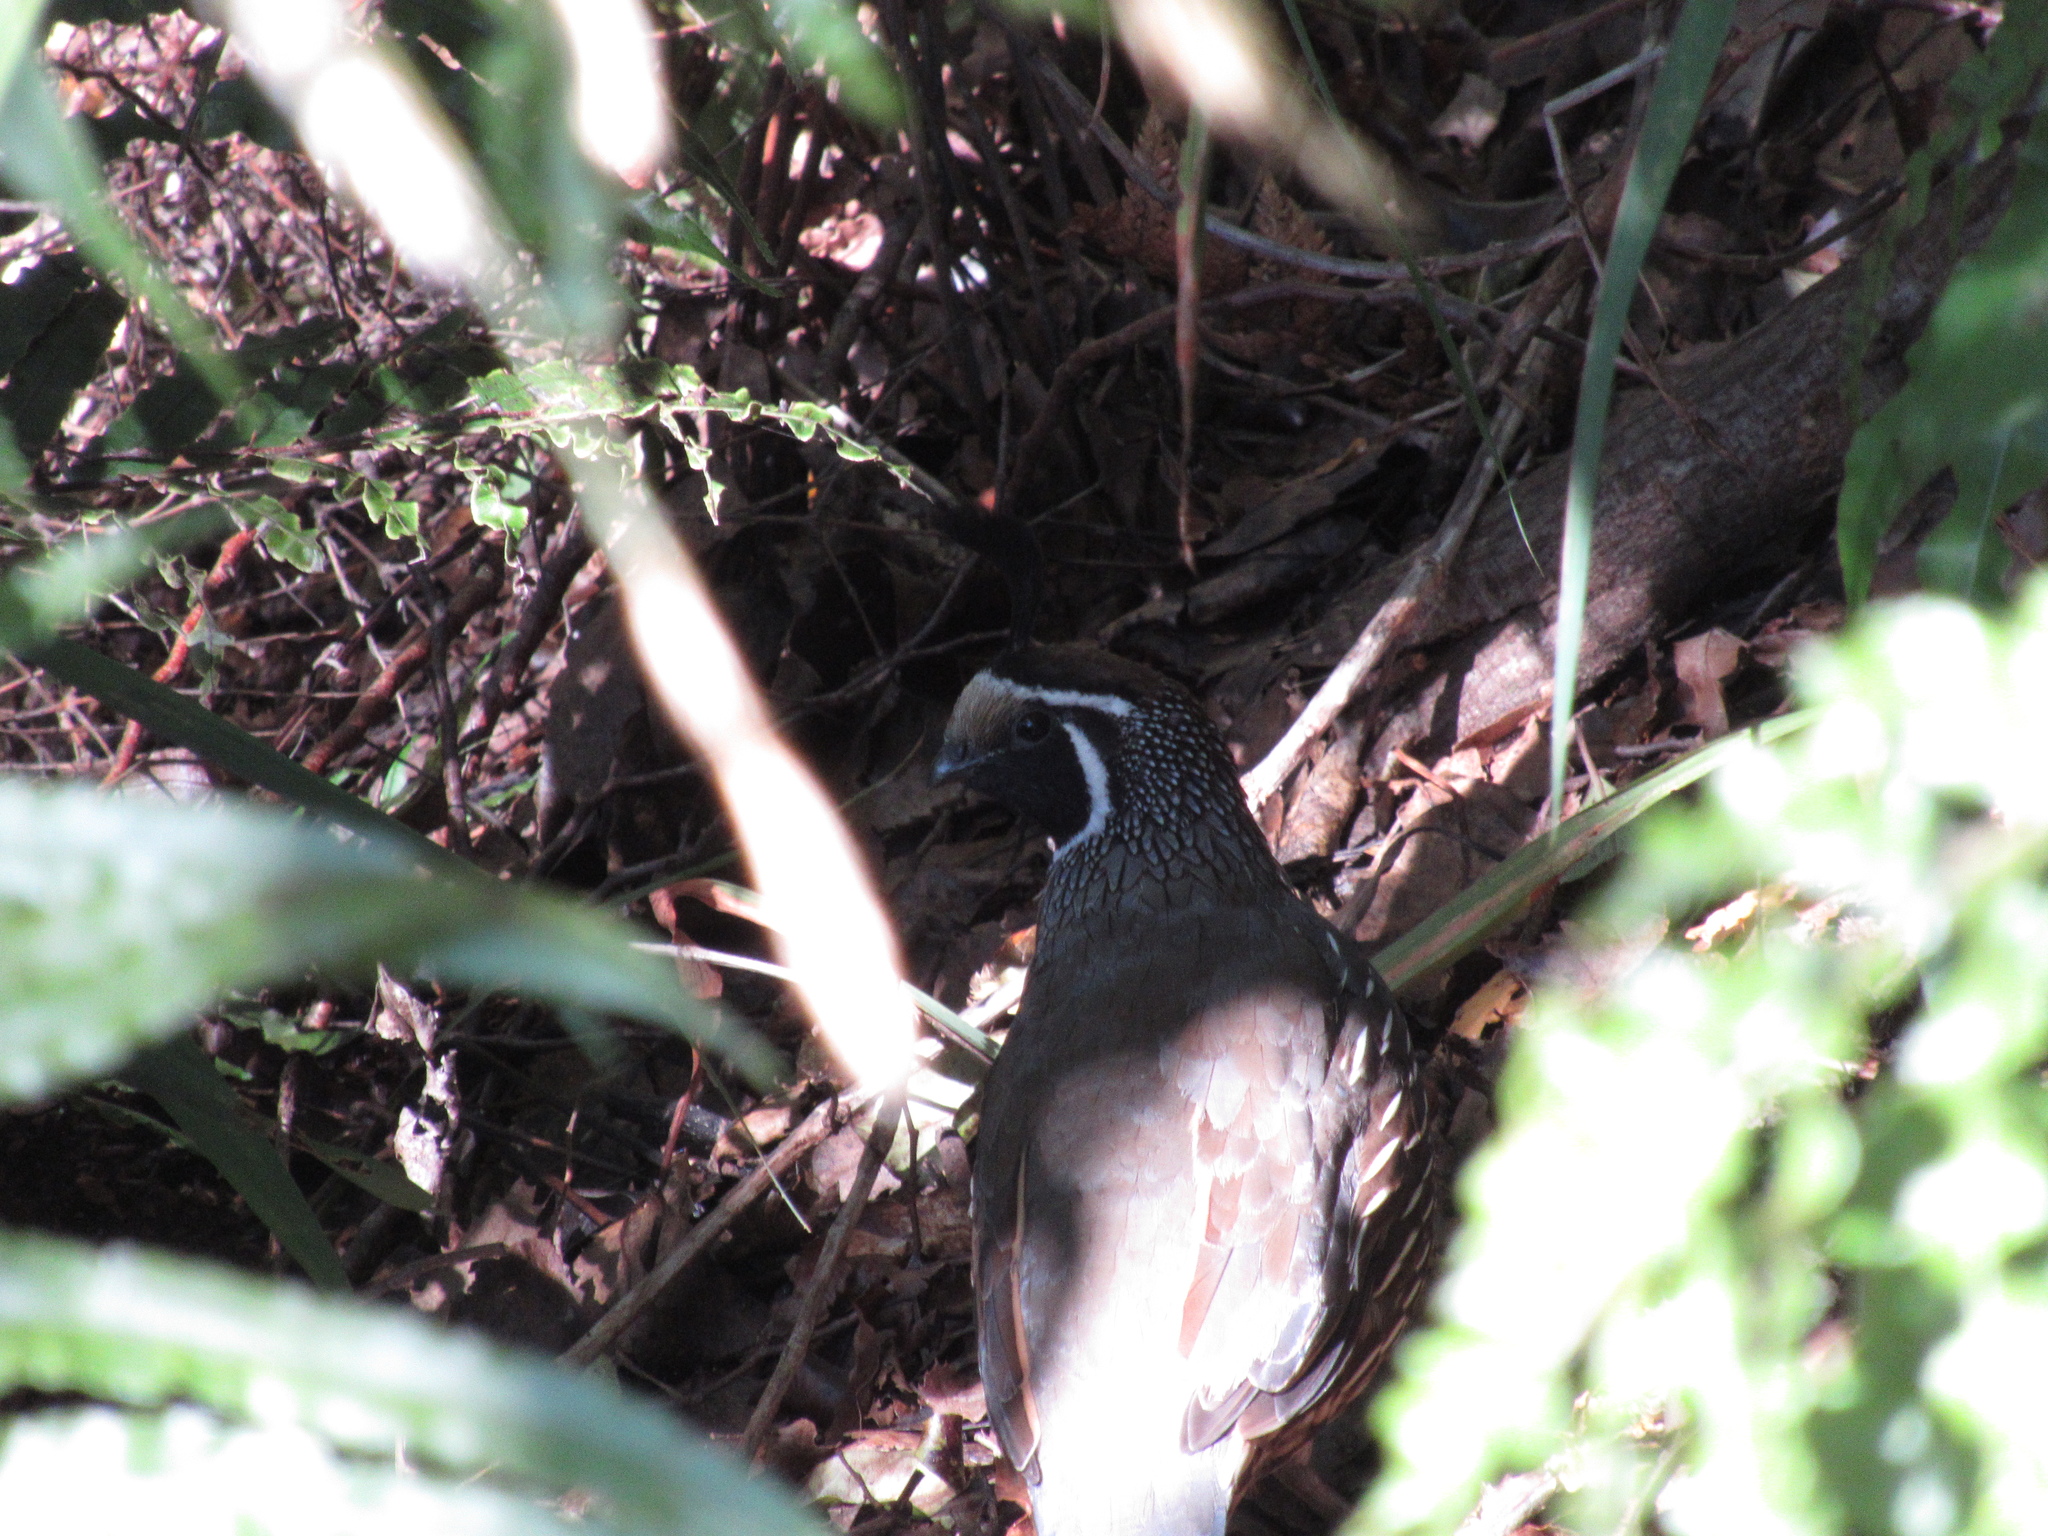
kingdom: Animalia
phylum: Chordata
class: Aves
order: Galliformes
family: Odontophoridae
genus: Callipepla
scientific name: Callipepla californica
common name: California quail
